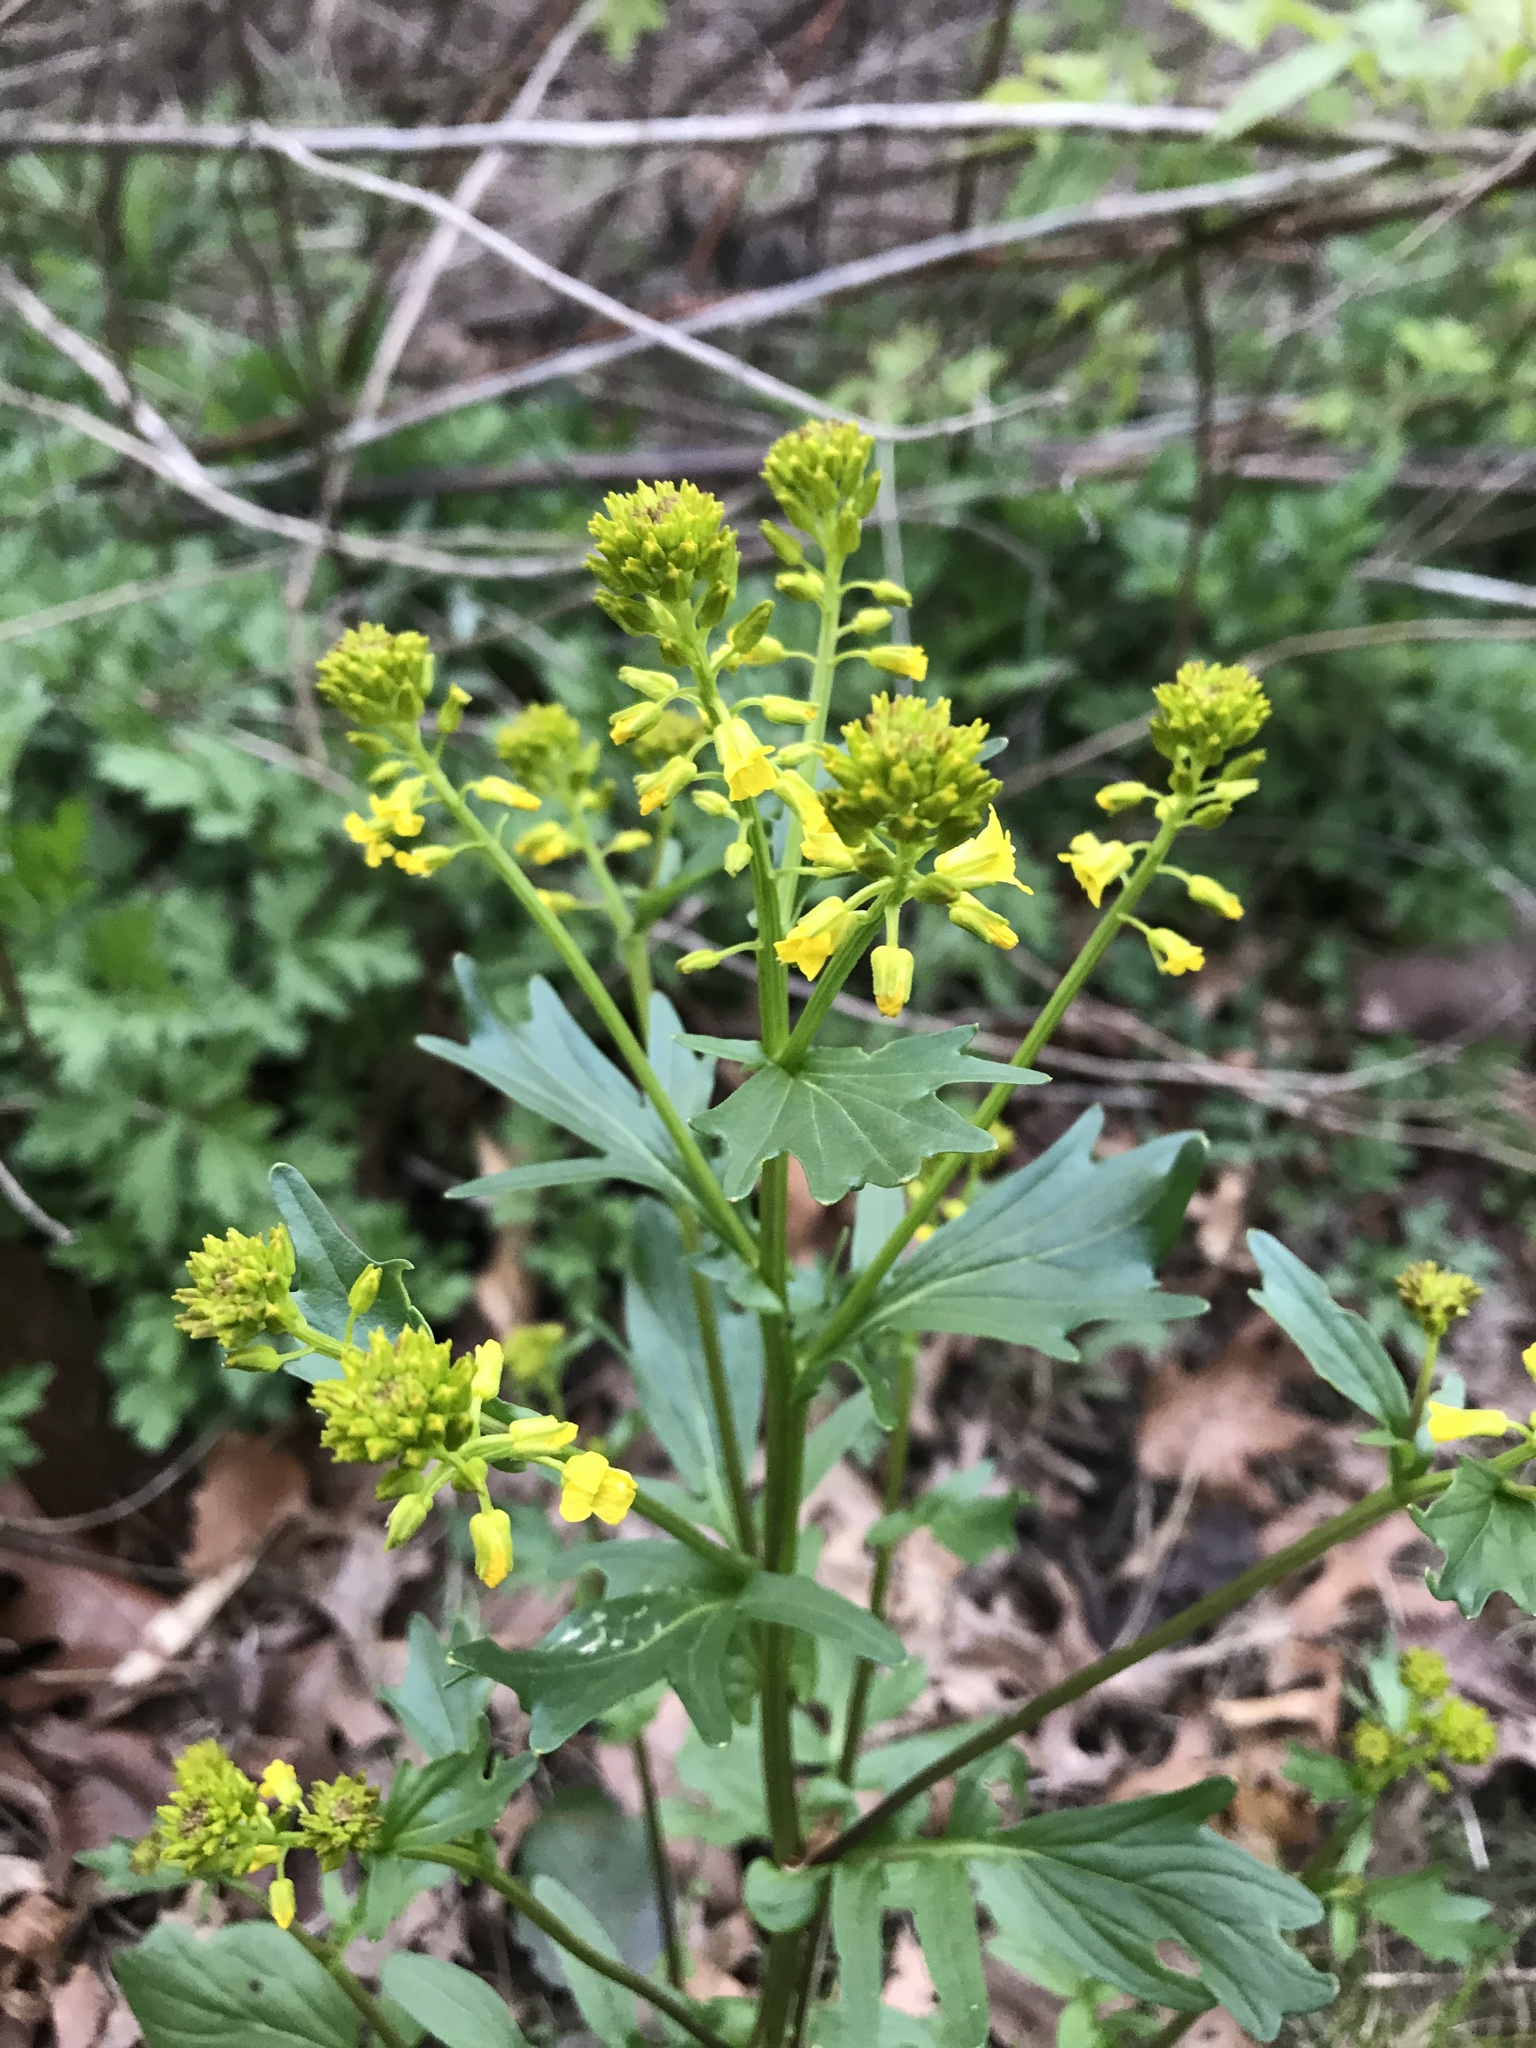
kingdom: Plantae
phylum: Tracheophyta
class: Magnoliopsida
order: Brassicales
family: Brassicaceae
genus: Barbarea
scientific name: Barbarea vulgaris
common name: Cressy-greens
